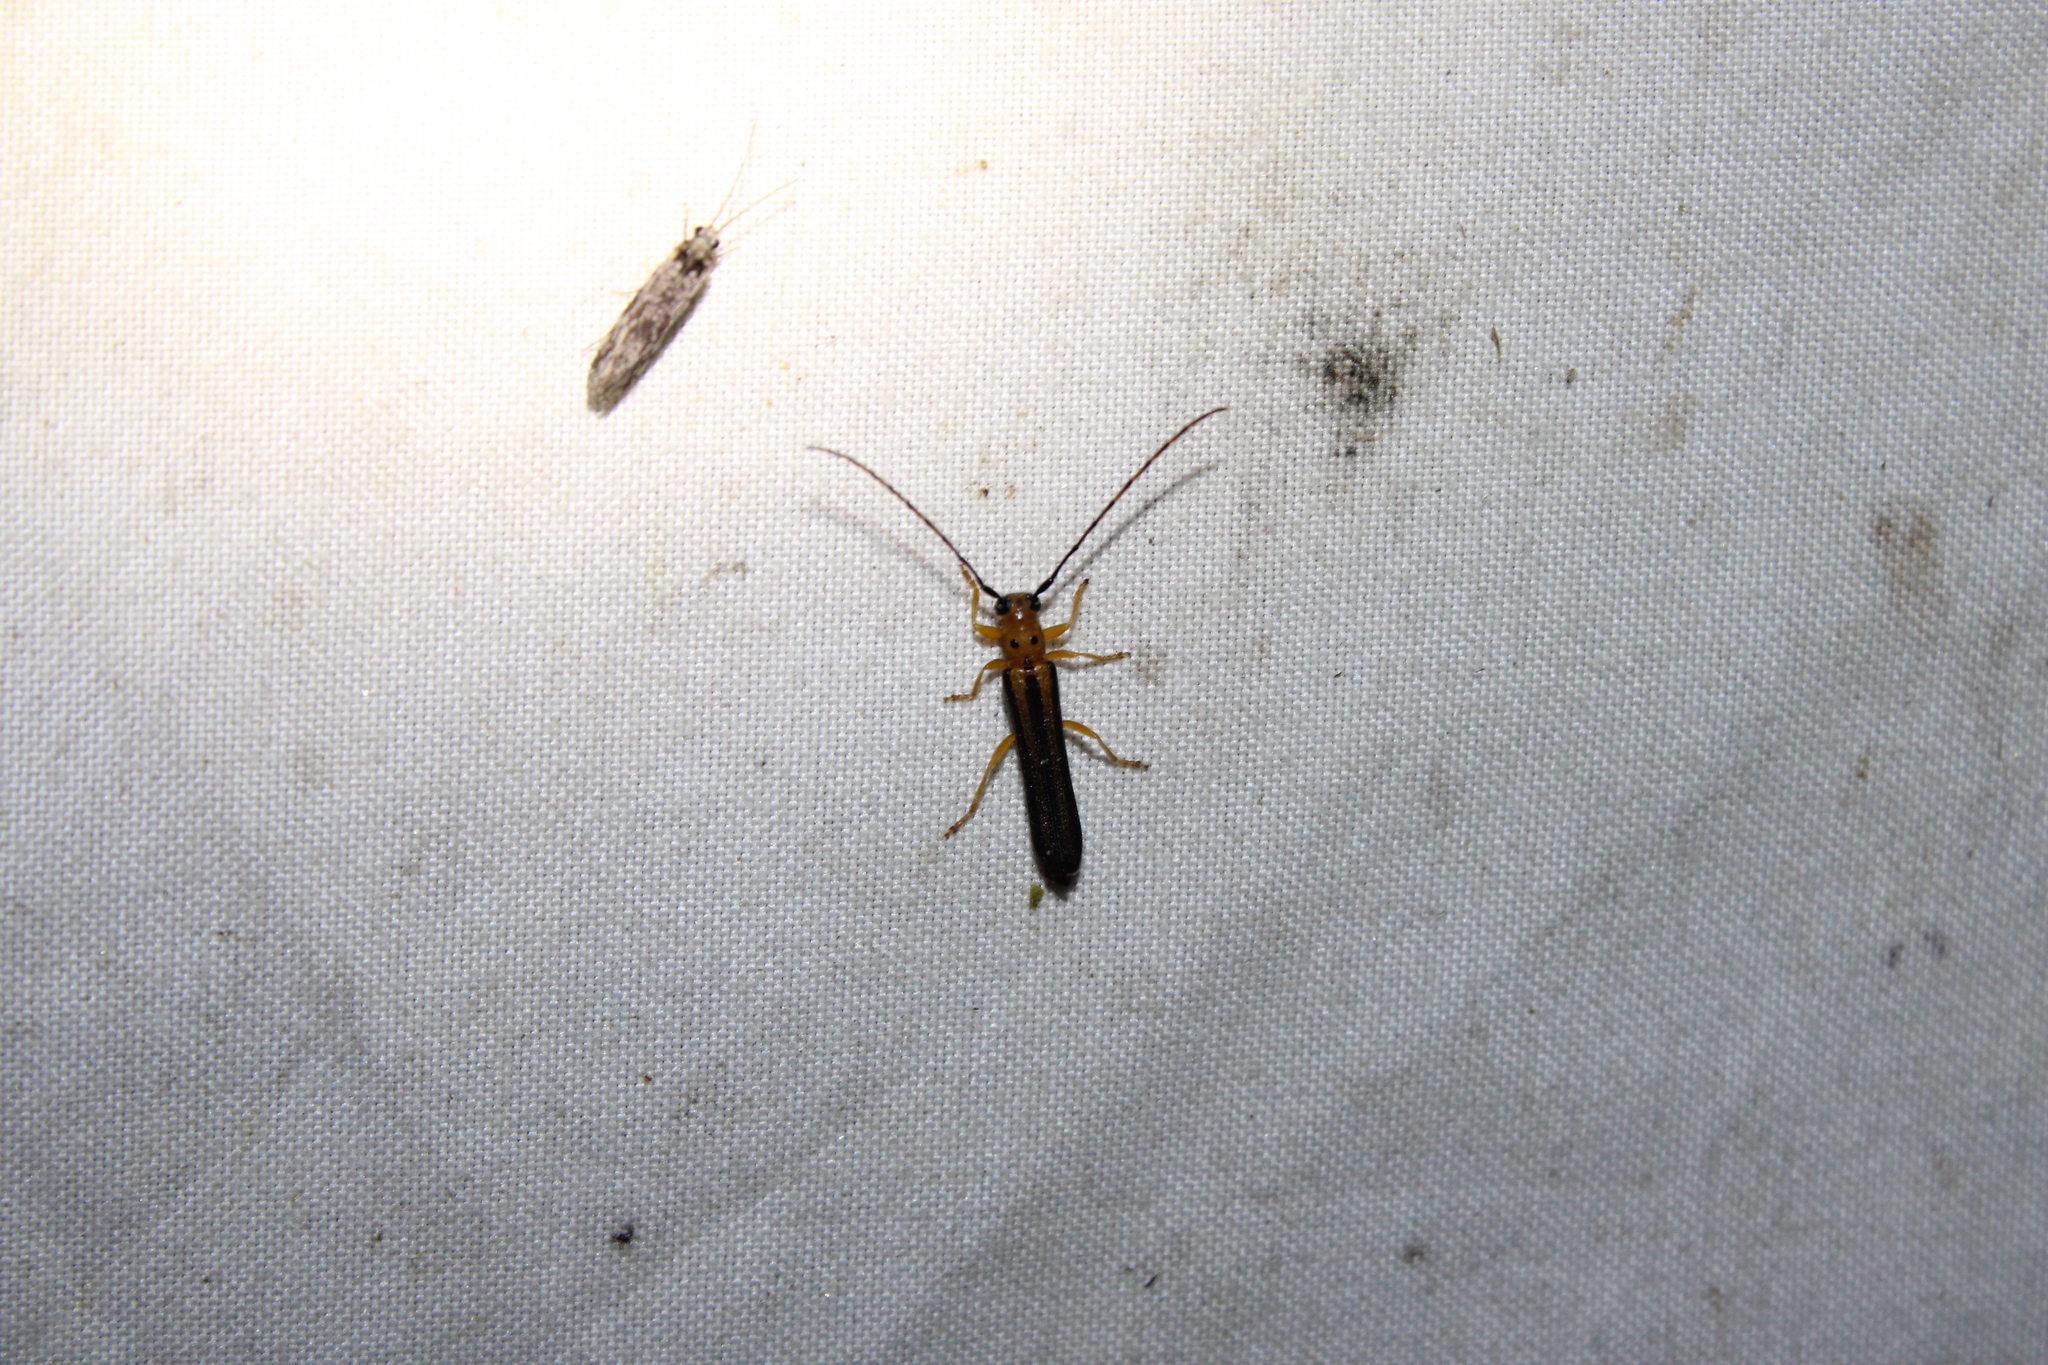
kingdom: Animalia
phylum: Arthropoda
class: Insecta
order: Coleoptera
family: Cerambycidae
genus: Oberea
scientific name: Oberea tripunctata
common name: Dogwood twig borer
